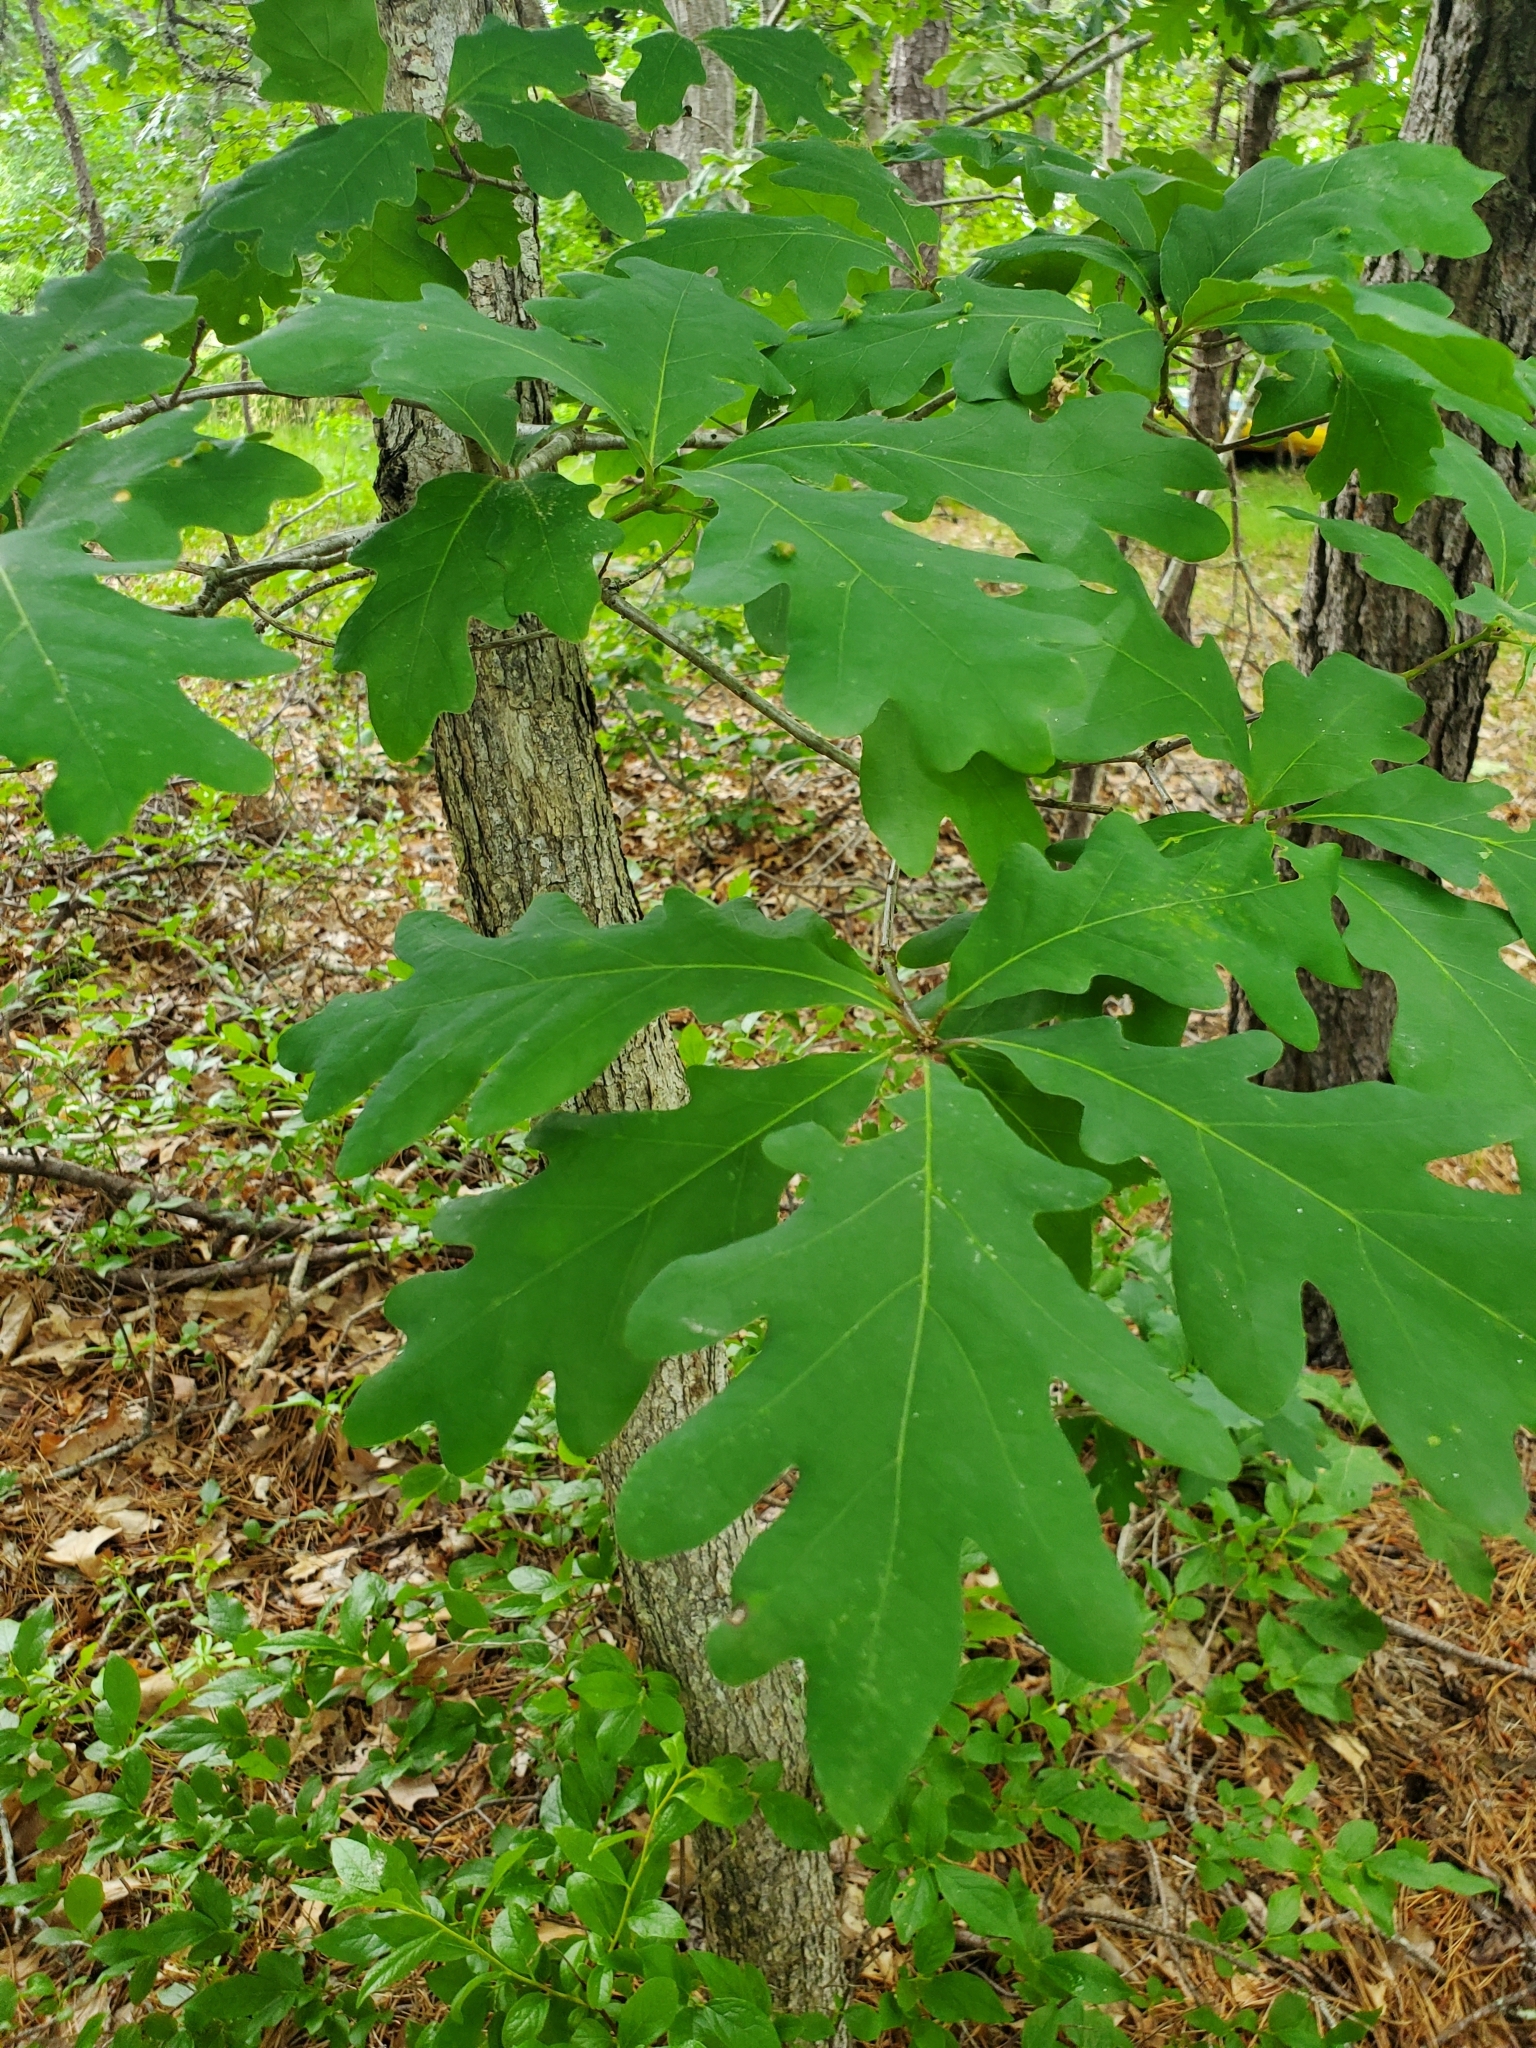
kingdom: Plantae
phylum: Tracheophyta
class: Magnoliopsida
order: Fagales
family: Fagaceae
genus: Quercus
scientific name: Quercus alba
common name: White oak
